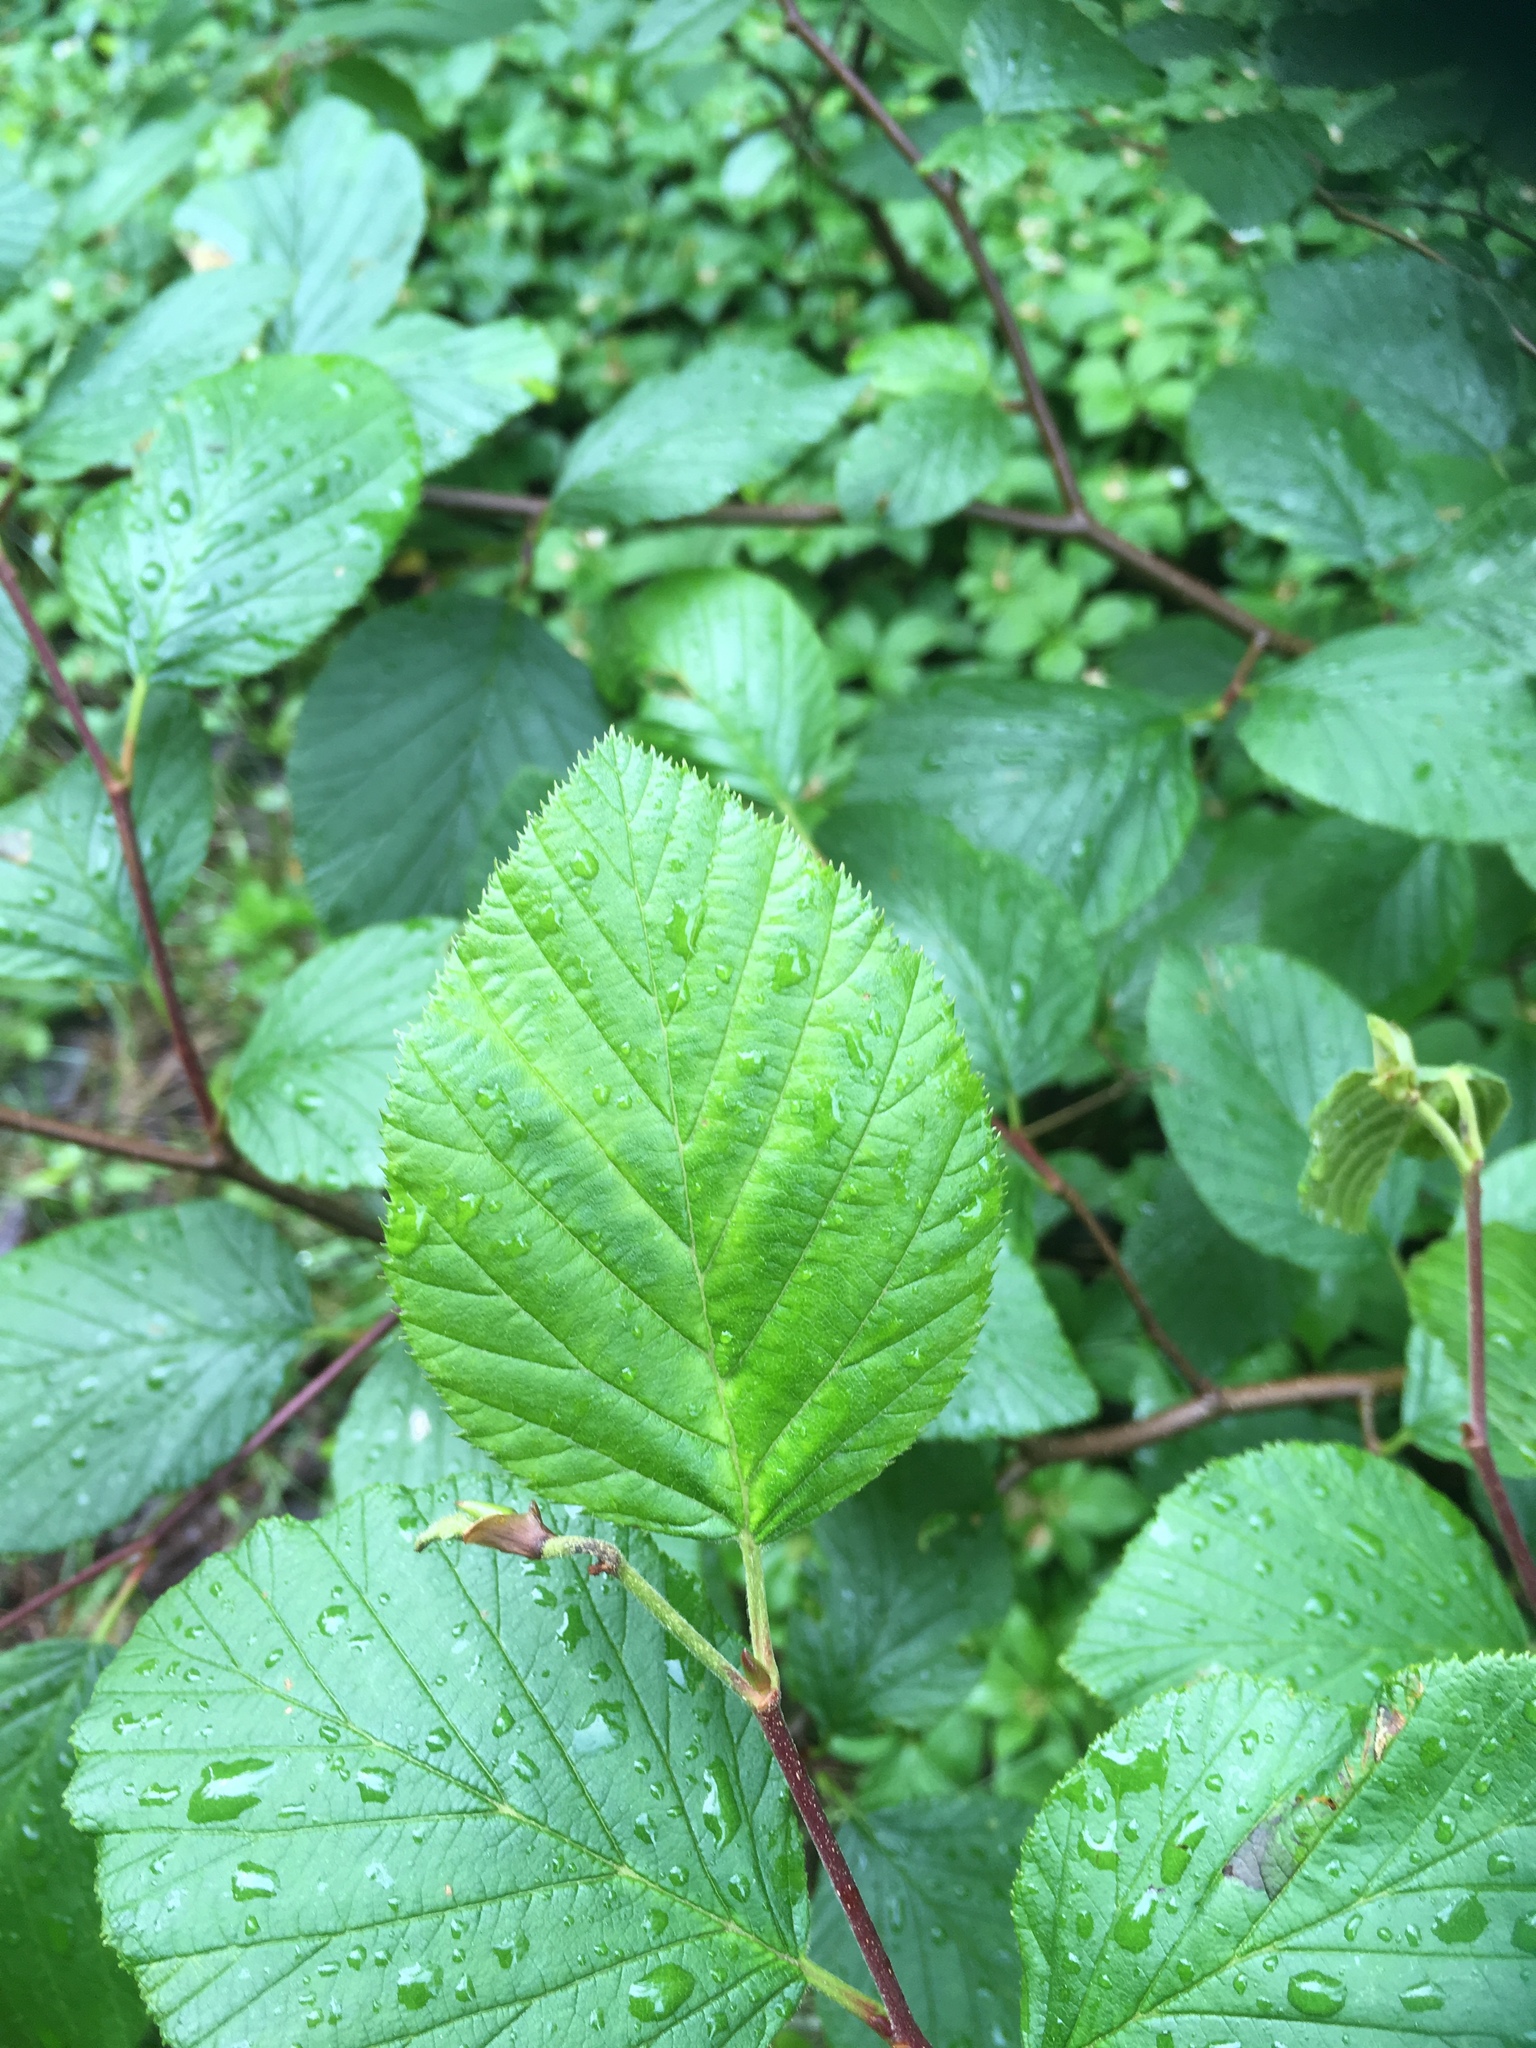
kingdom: Plantae
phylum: Tracheophyta
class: Magnoliopsida
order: Fagales
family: Betulaceae
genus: Alnus
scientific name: Alnus alnobetula
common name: Green alder
